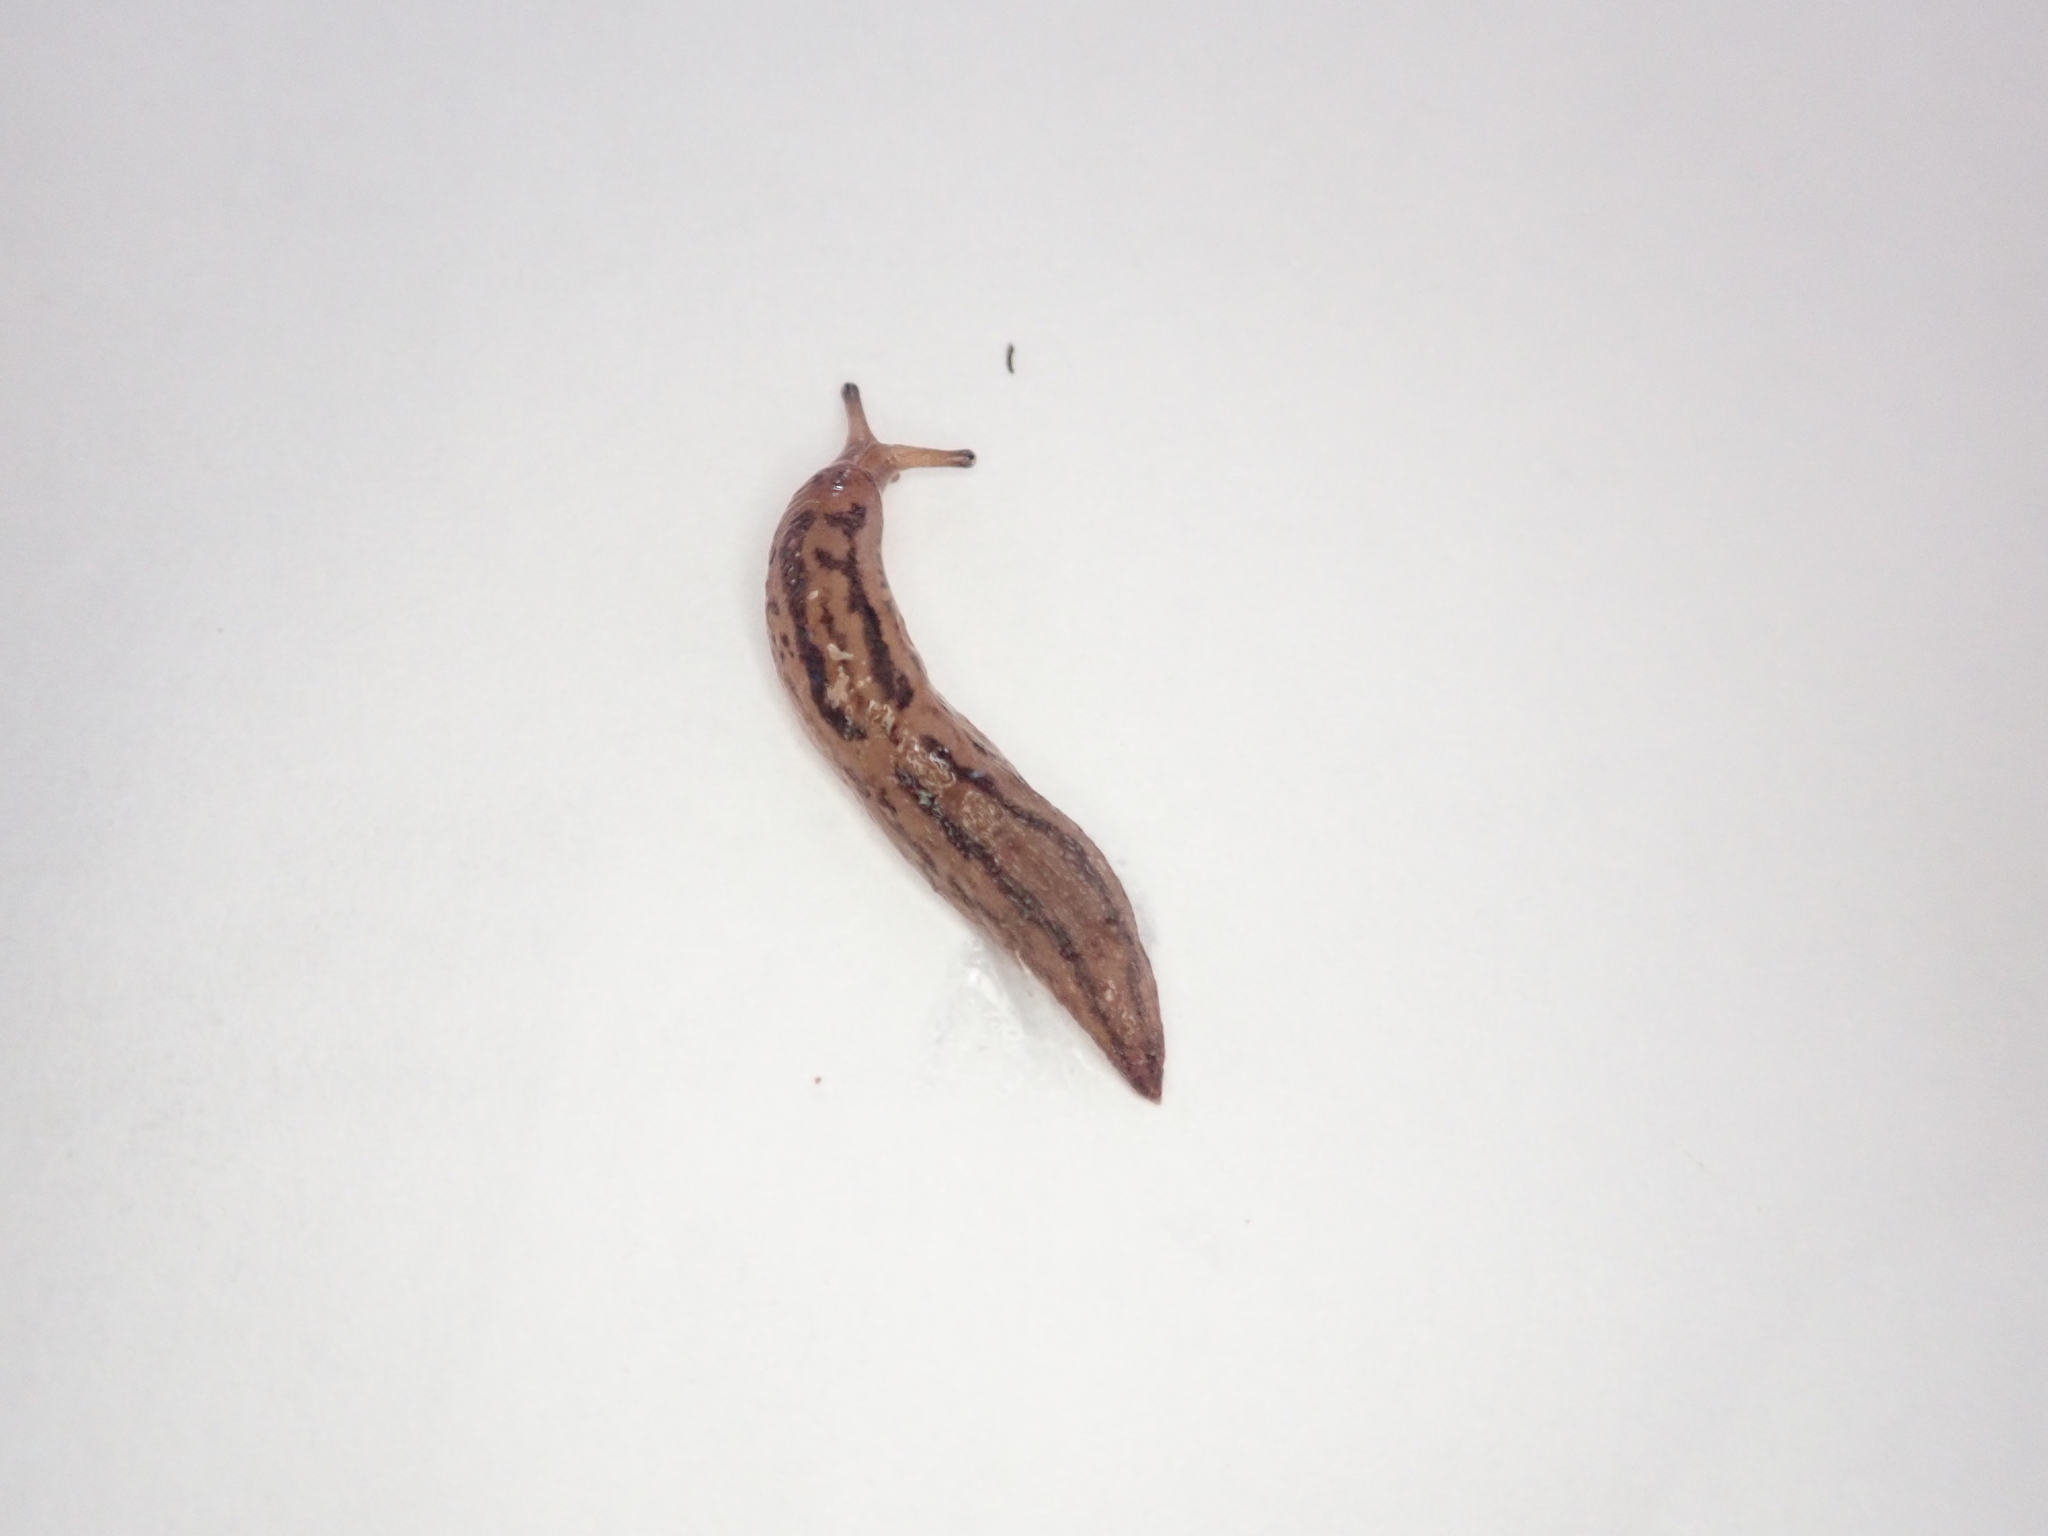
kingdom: Animalia
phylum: Mollusca
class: Gastropoda
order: Stylommatophora
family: Limacidae
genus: Ambigolimax
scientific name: Ambigolimax
